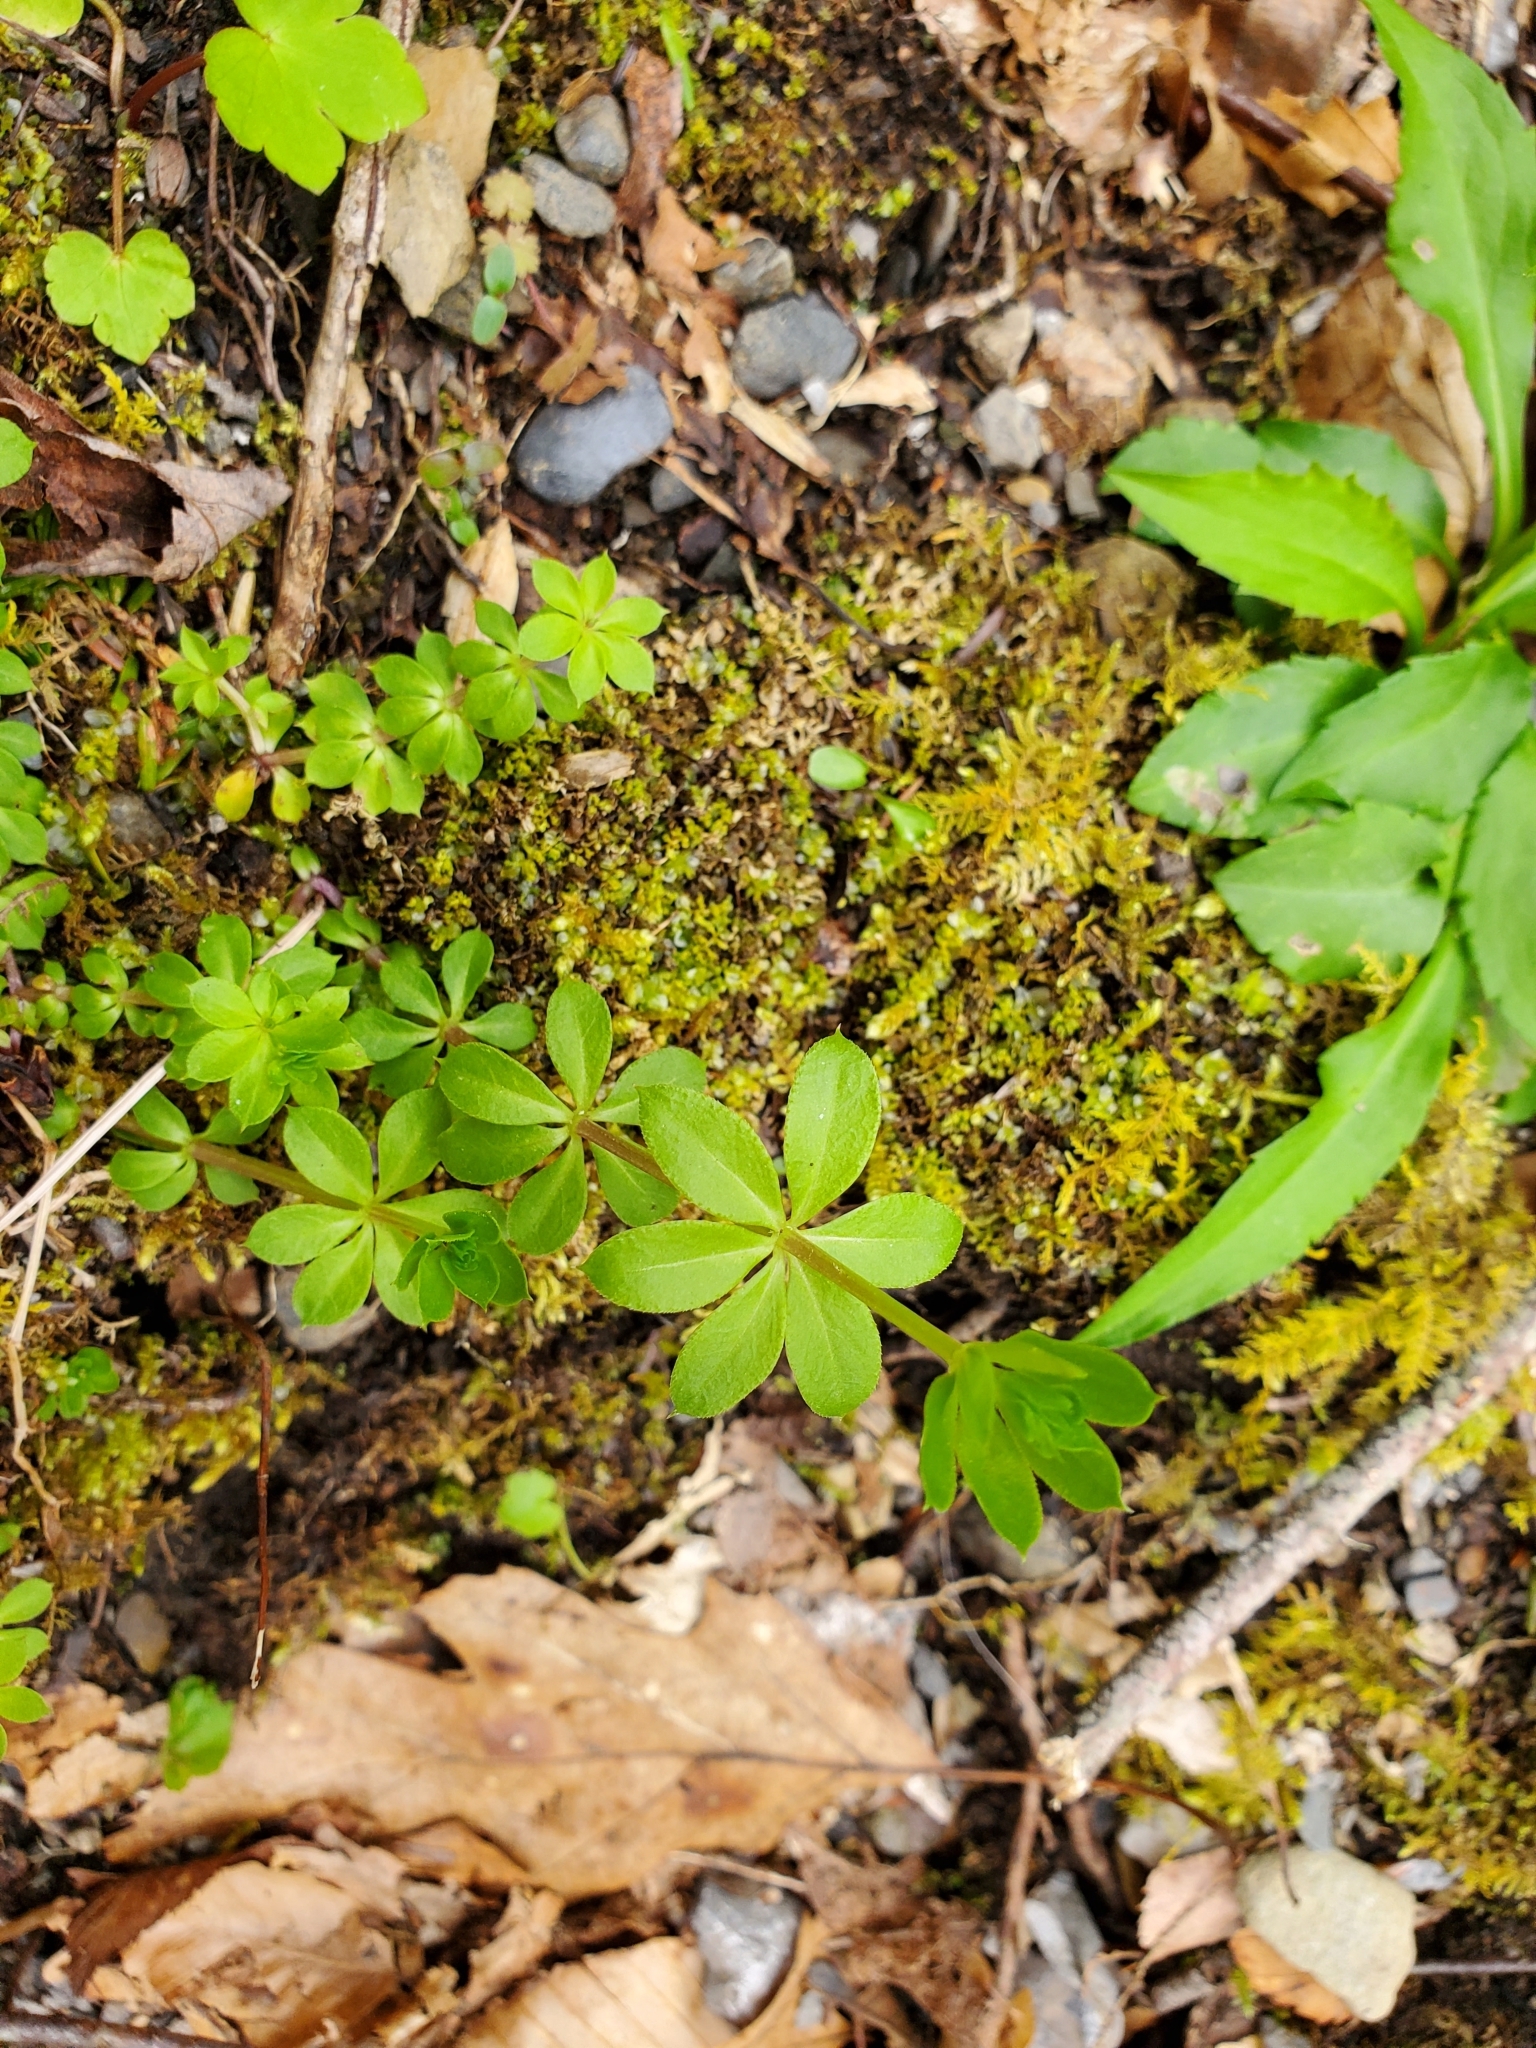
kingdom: Plantae
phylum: Tracheophyta
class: Magnoliopsida
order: Gentianales
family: Rubiaceae
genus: Galium
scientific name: Galium triflorum
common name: Fragrant bedstraw
